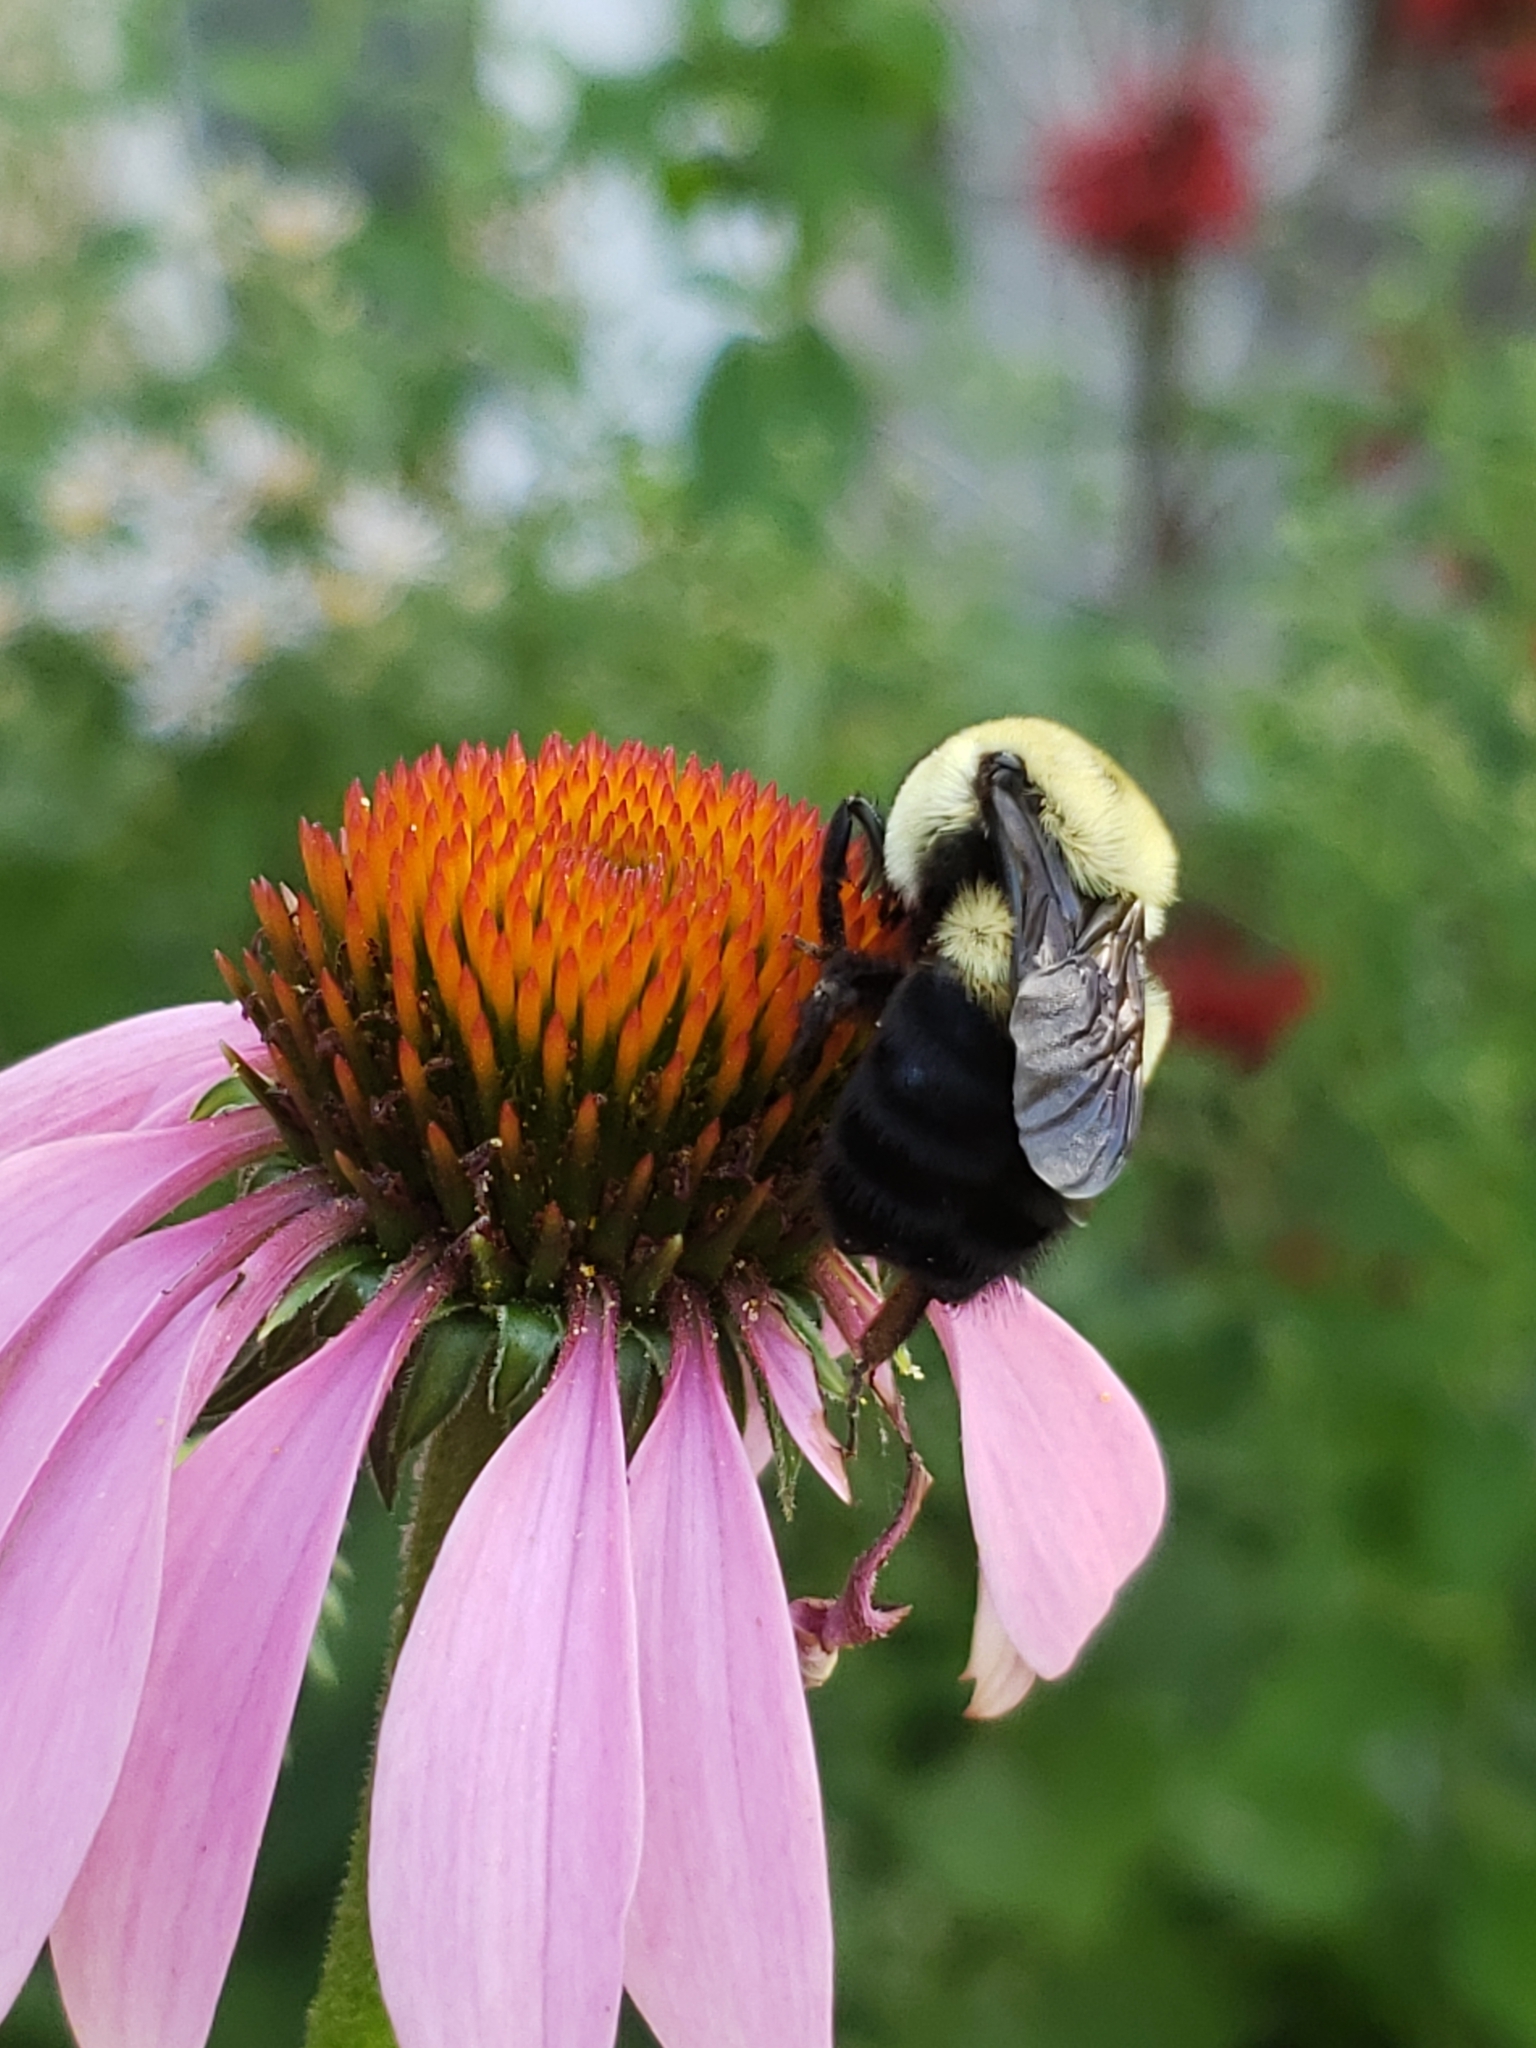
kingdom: Animalia
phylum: Arthropoda
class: Insecta
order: Hymenoptera
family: Apidae
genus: Bombus
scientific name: Bombus griseocollis
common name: Brown-belted bumble bee
